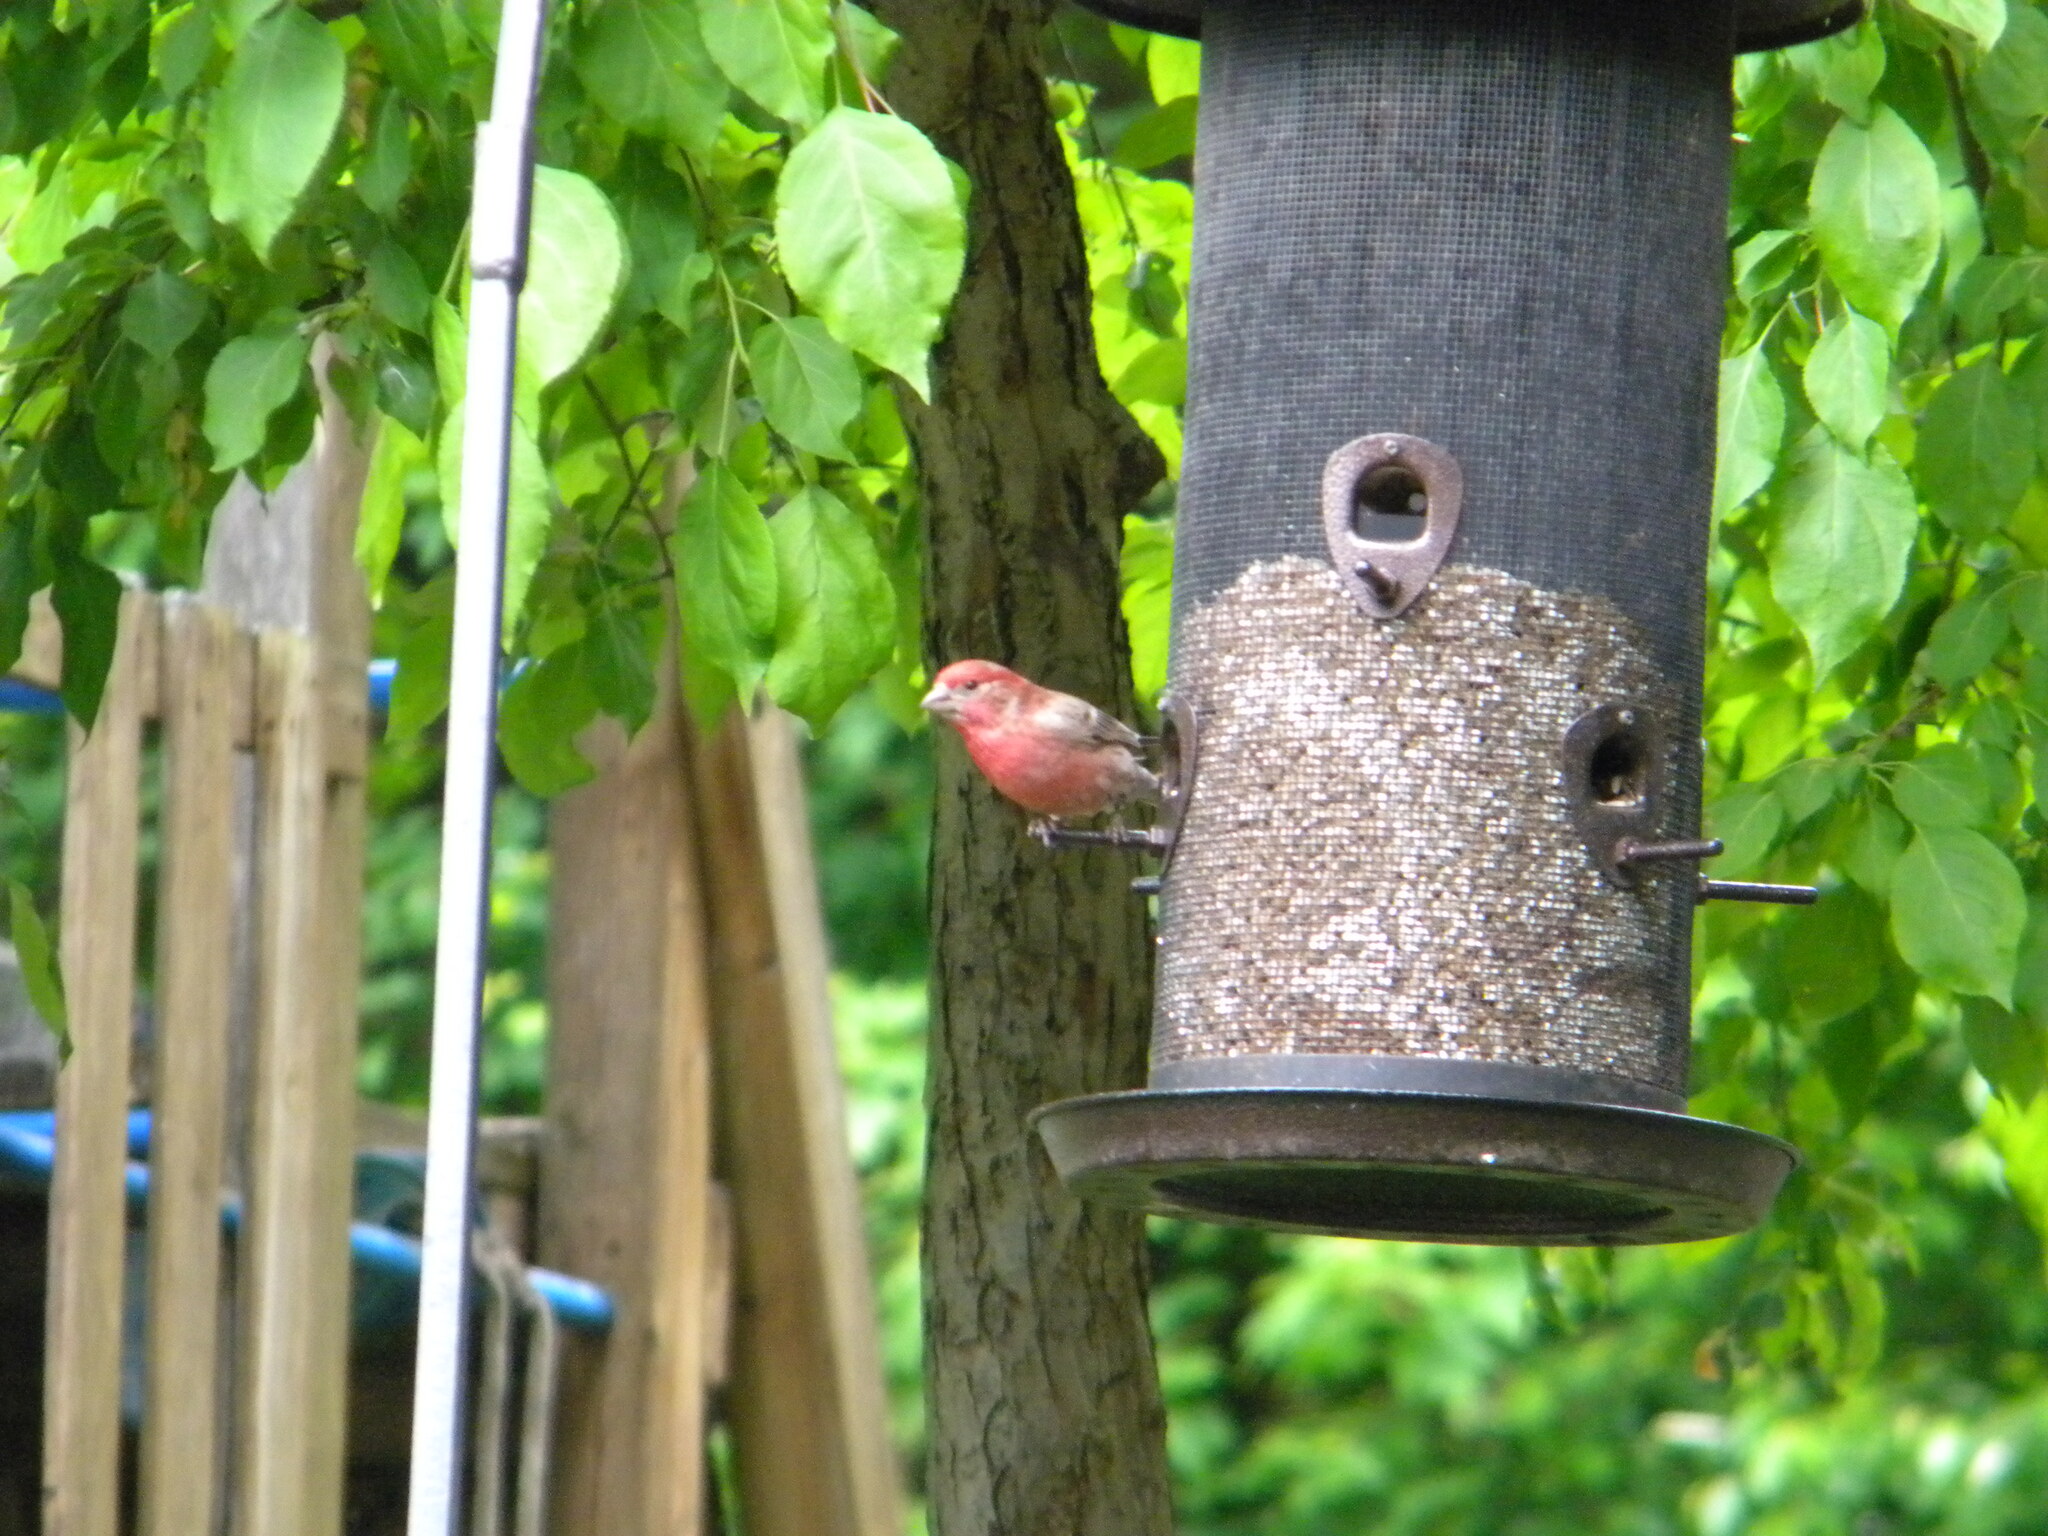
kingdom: Animalia
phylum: Chordata
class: Aves
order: Passeriformes
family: Fringillidae
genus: Haemorhous
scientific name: Haemorhous mexicanus
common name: House finch
